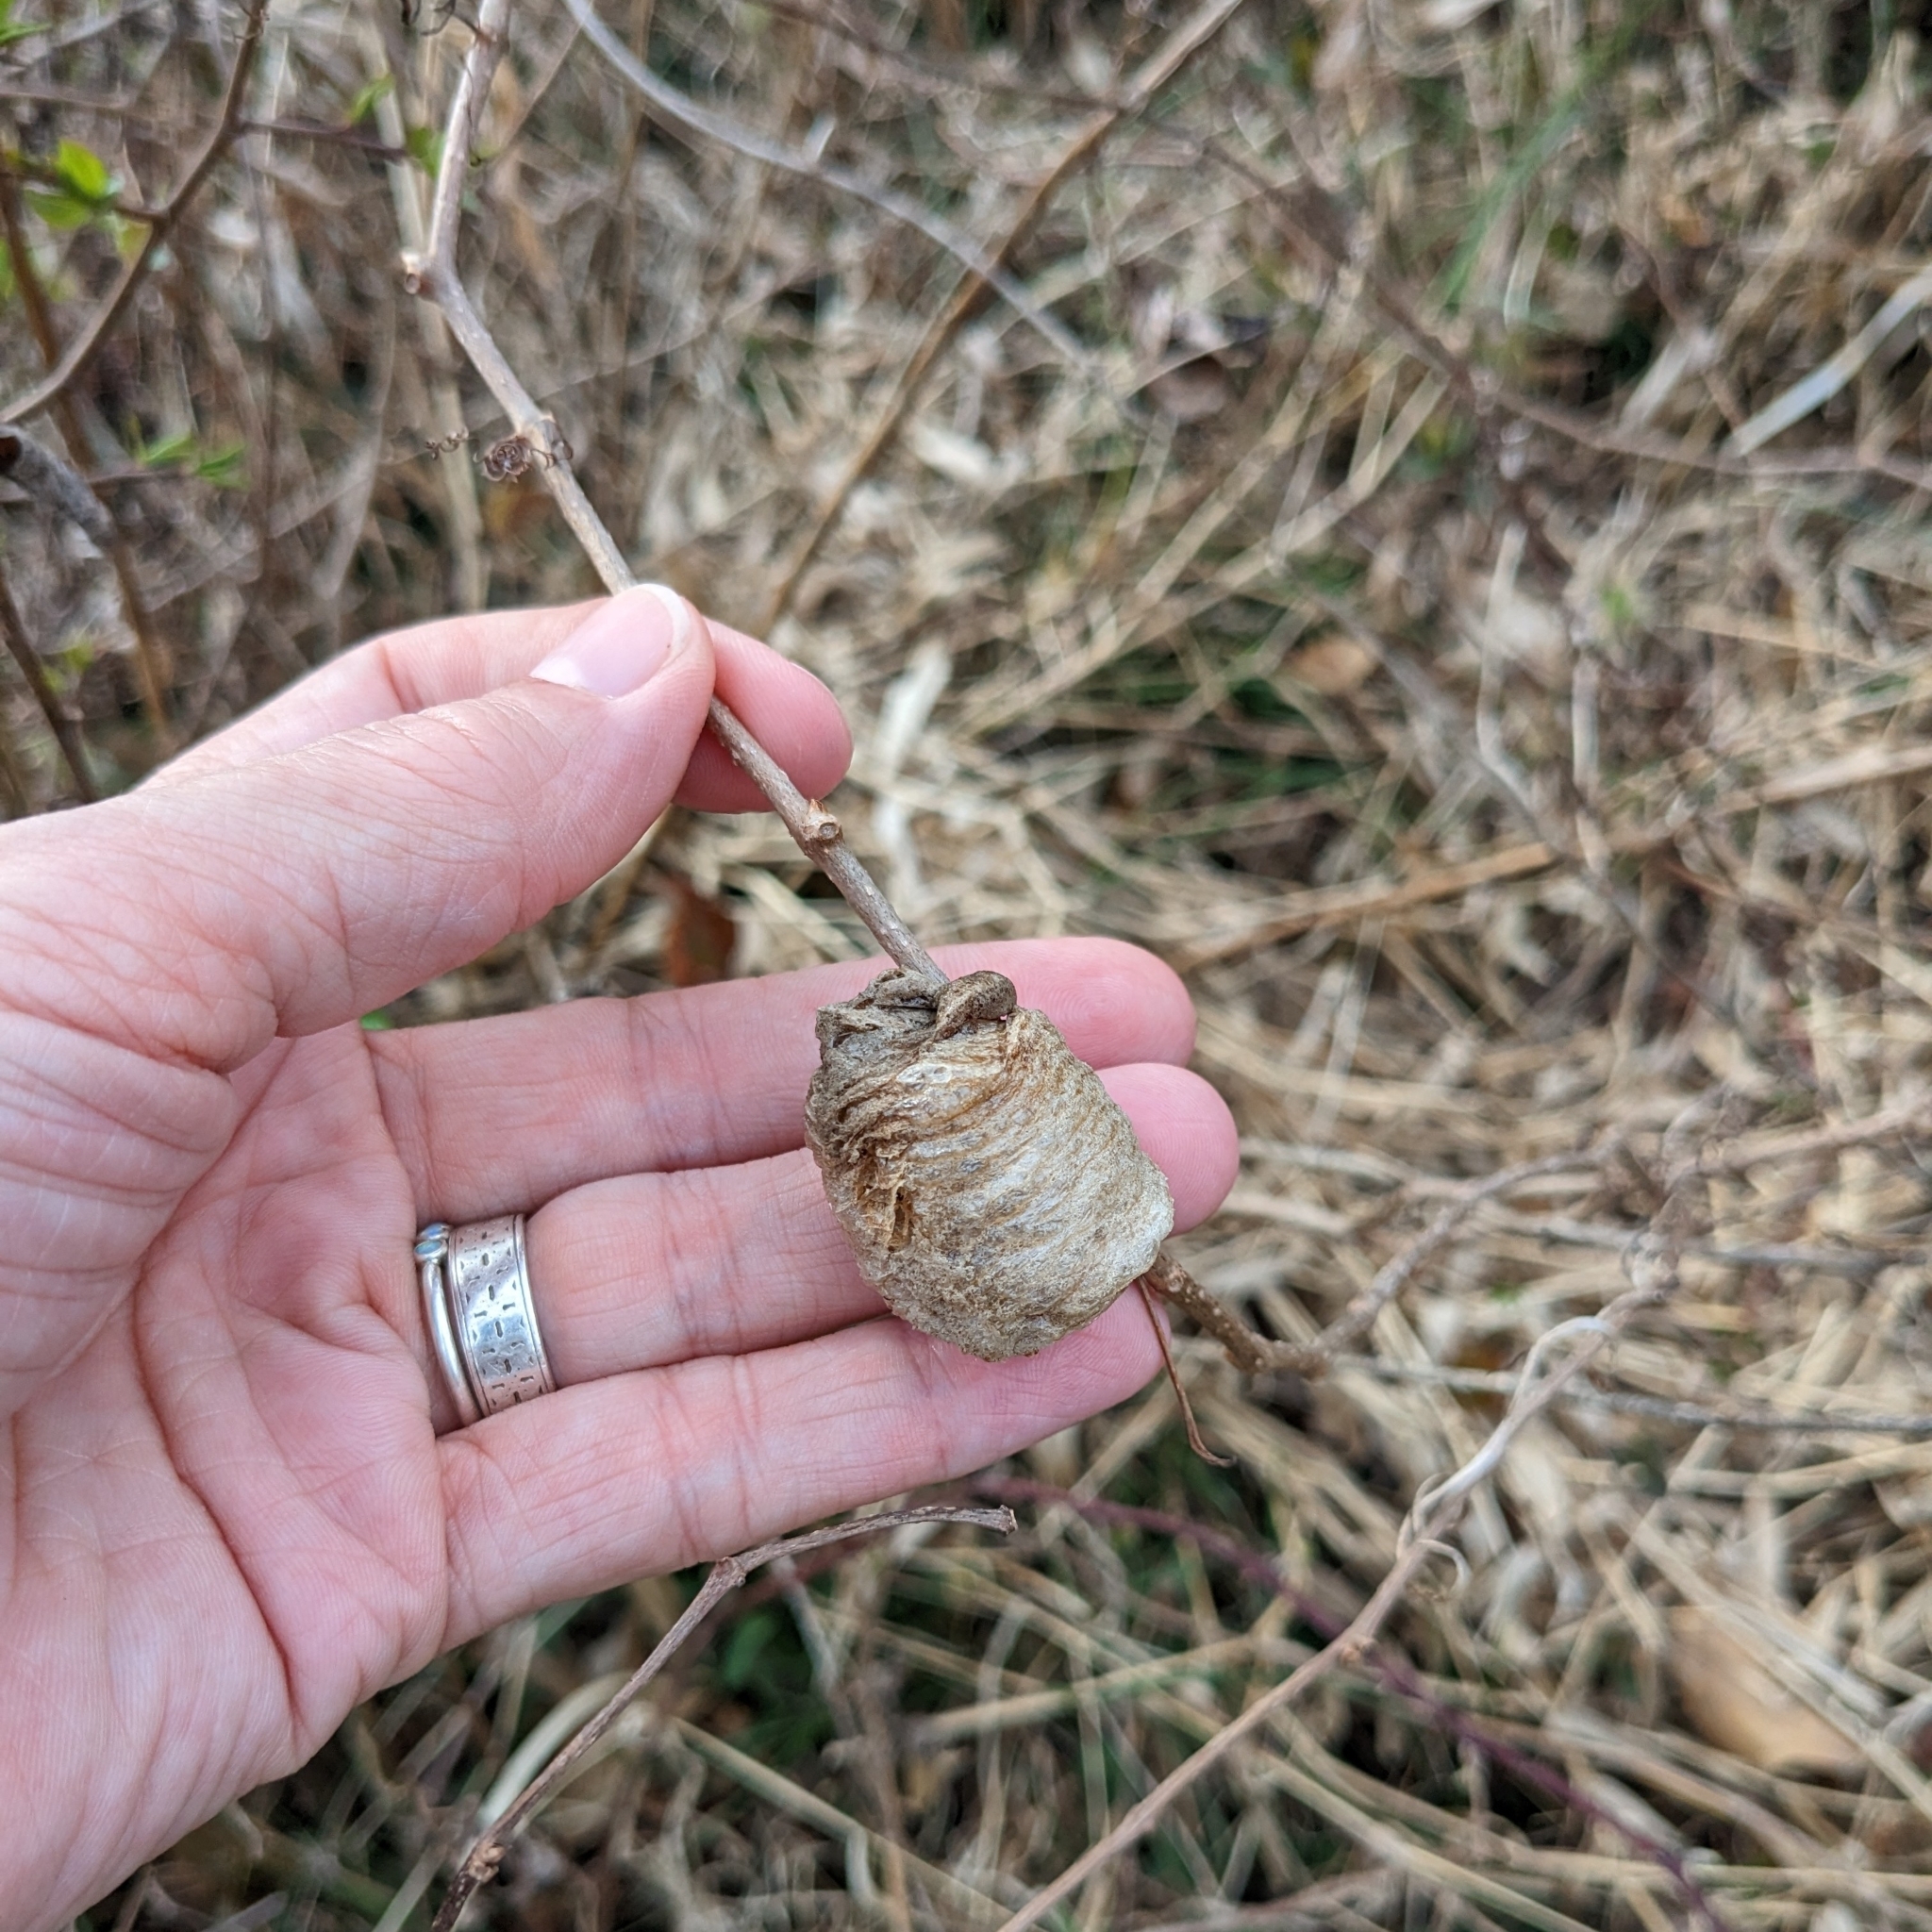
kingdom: Animalia
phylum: Arthropoda
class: Insecta
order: Mantodea
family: Mantidae
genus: Tenodera
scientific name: Tenodera sinensis
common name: Chinese mantis
